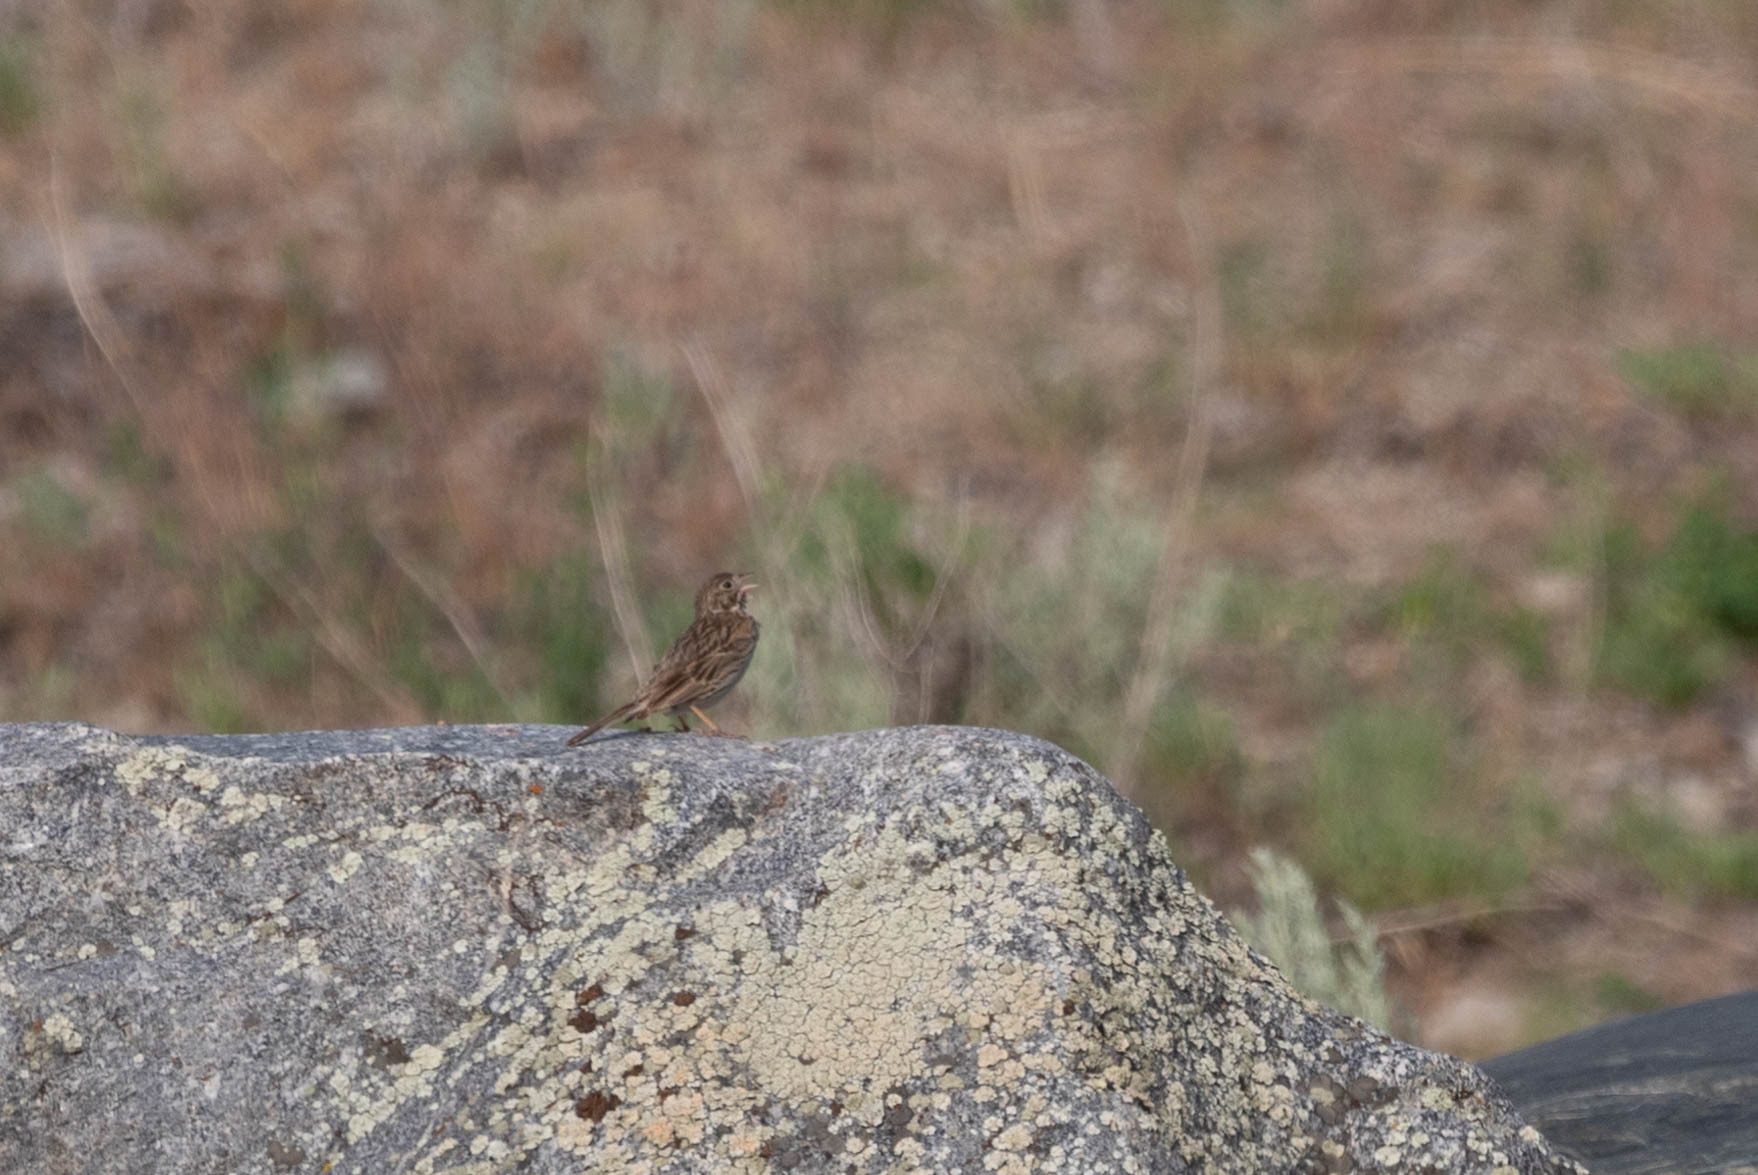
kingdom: Animalia
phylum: Chordata
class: Aves
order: Passeriformes
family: Passerellidae
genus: Pooecetes
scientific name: Pooecetes gramineus
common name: Vesper sparrow
